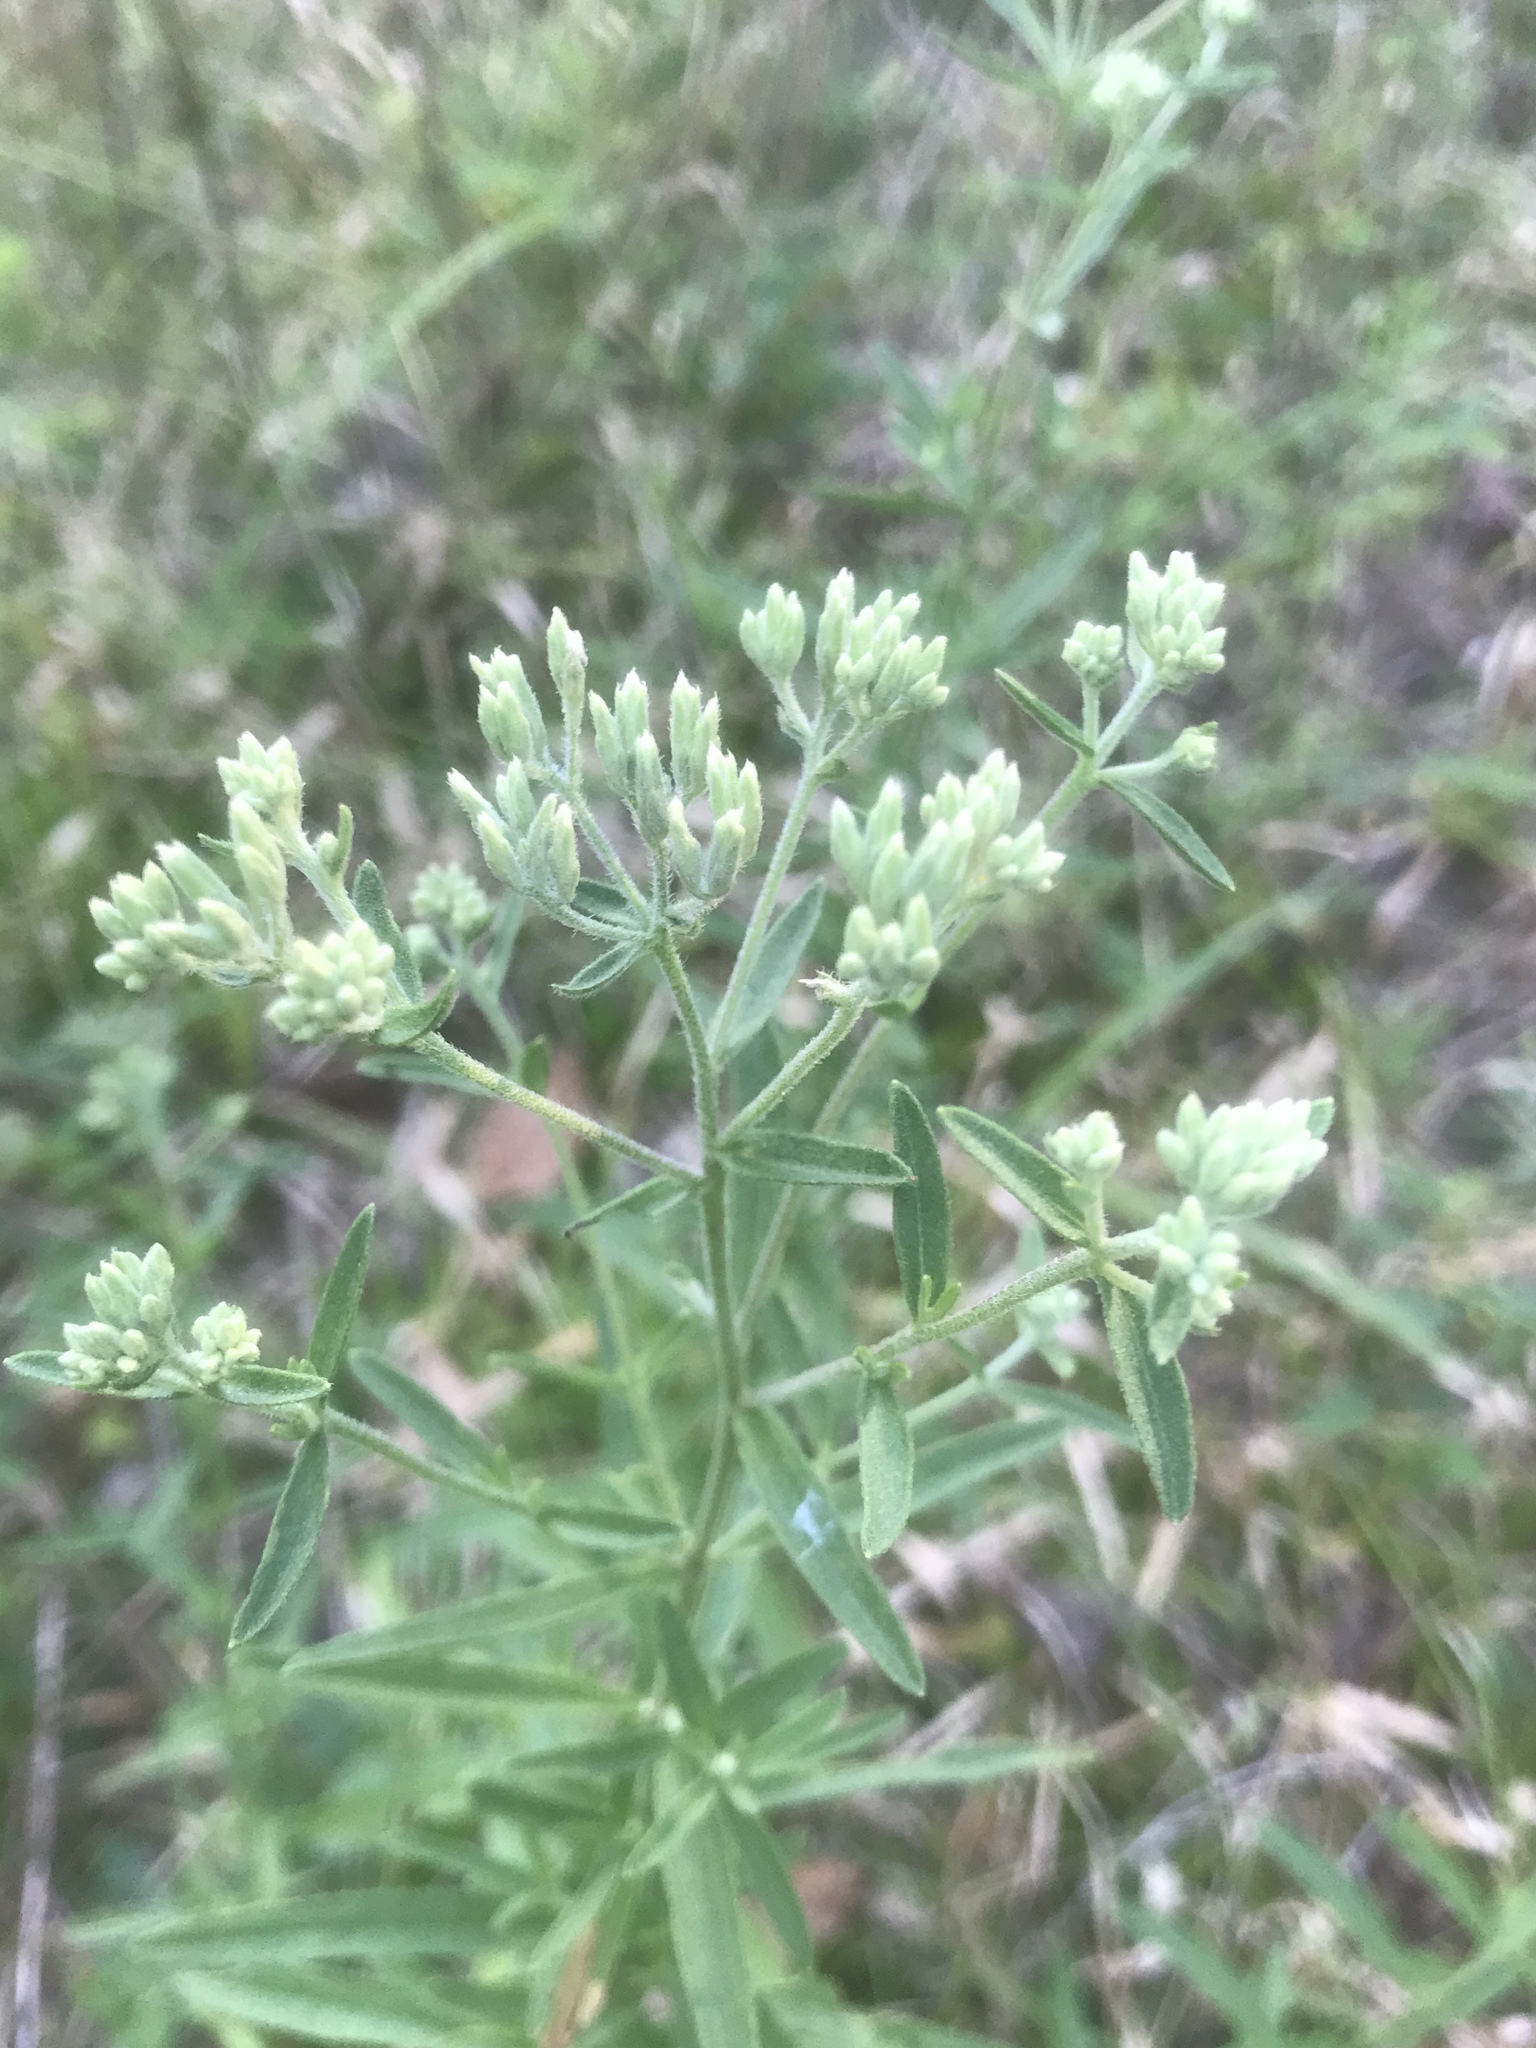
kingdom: Plantae
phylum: Tracheophyta
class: Magnoliopsida
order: Asterales
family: Asteraceae
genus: Eupatorium
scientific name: Eupatorium torreyanum
